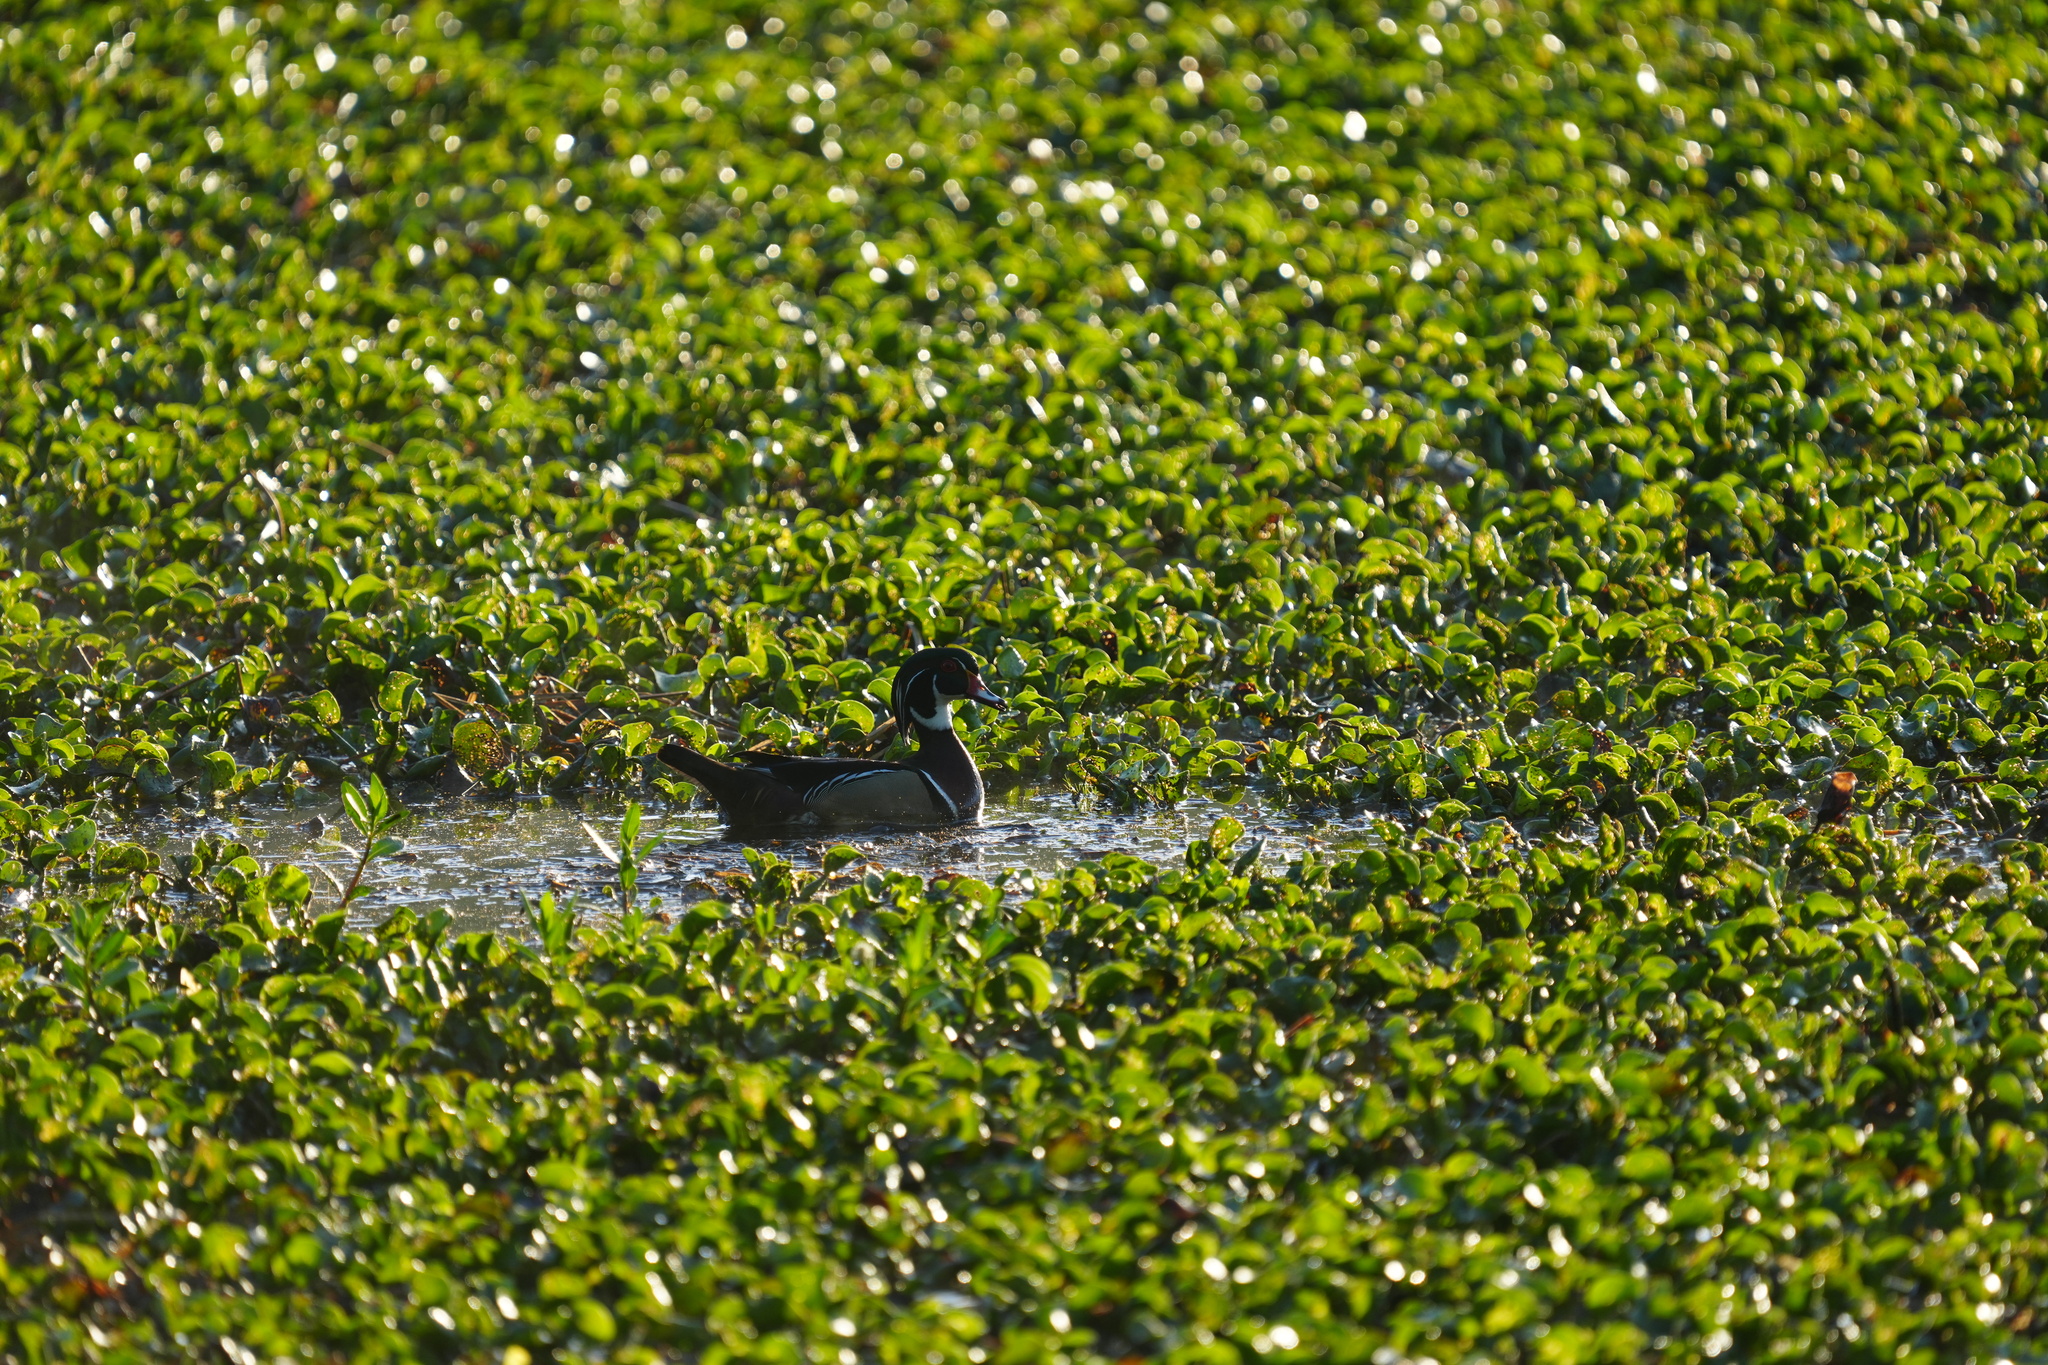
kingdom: Animalia
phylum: Chordata
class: Aves
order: Anseriformes
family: Anatidae
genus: Aix
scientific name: Aix sponsa
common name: Wood duck
